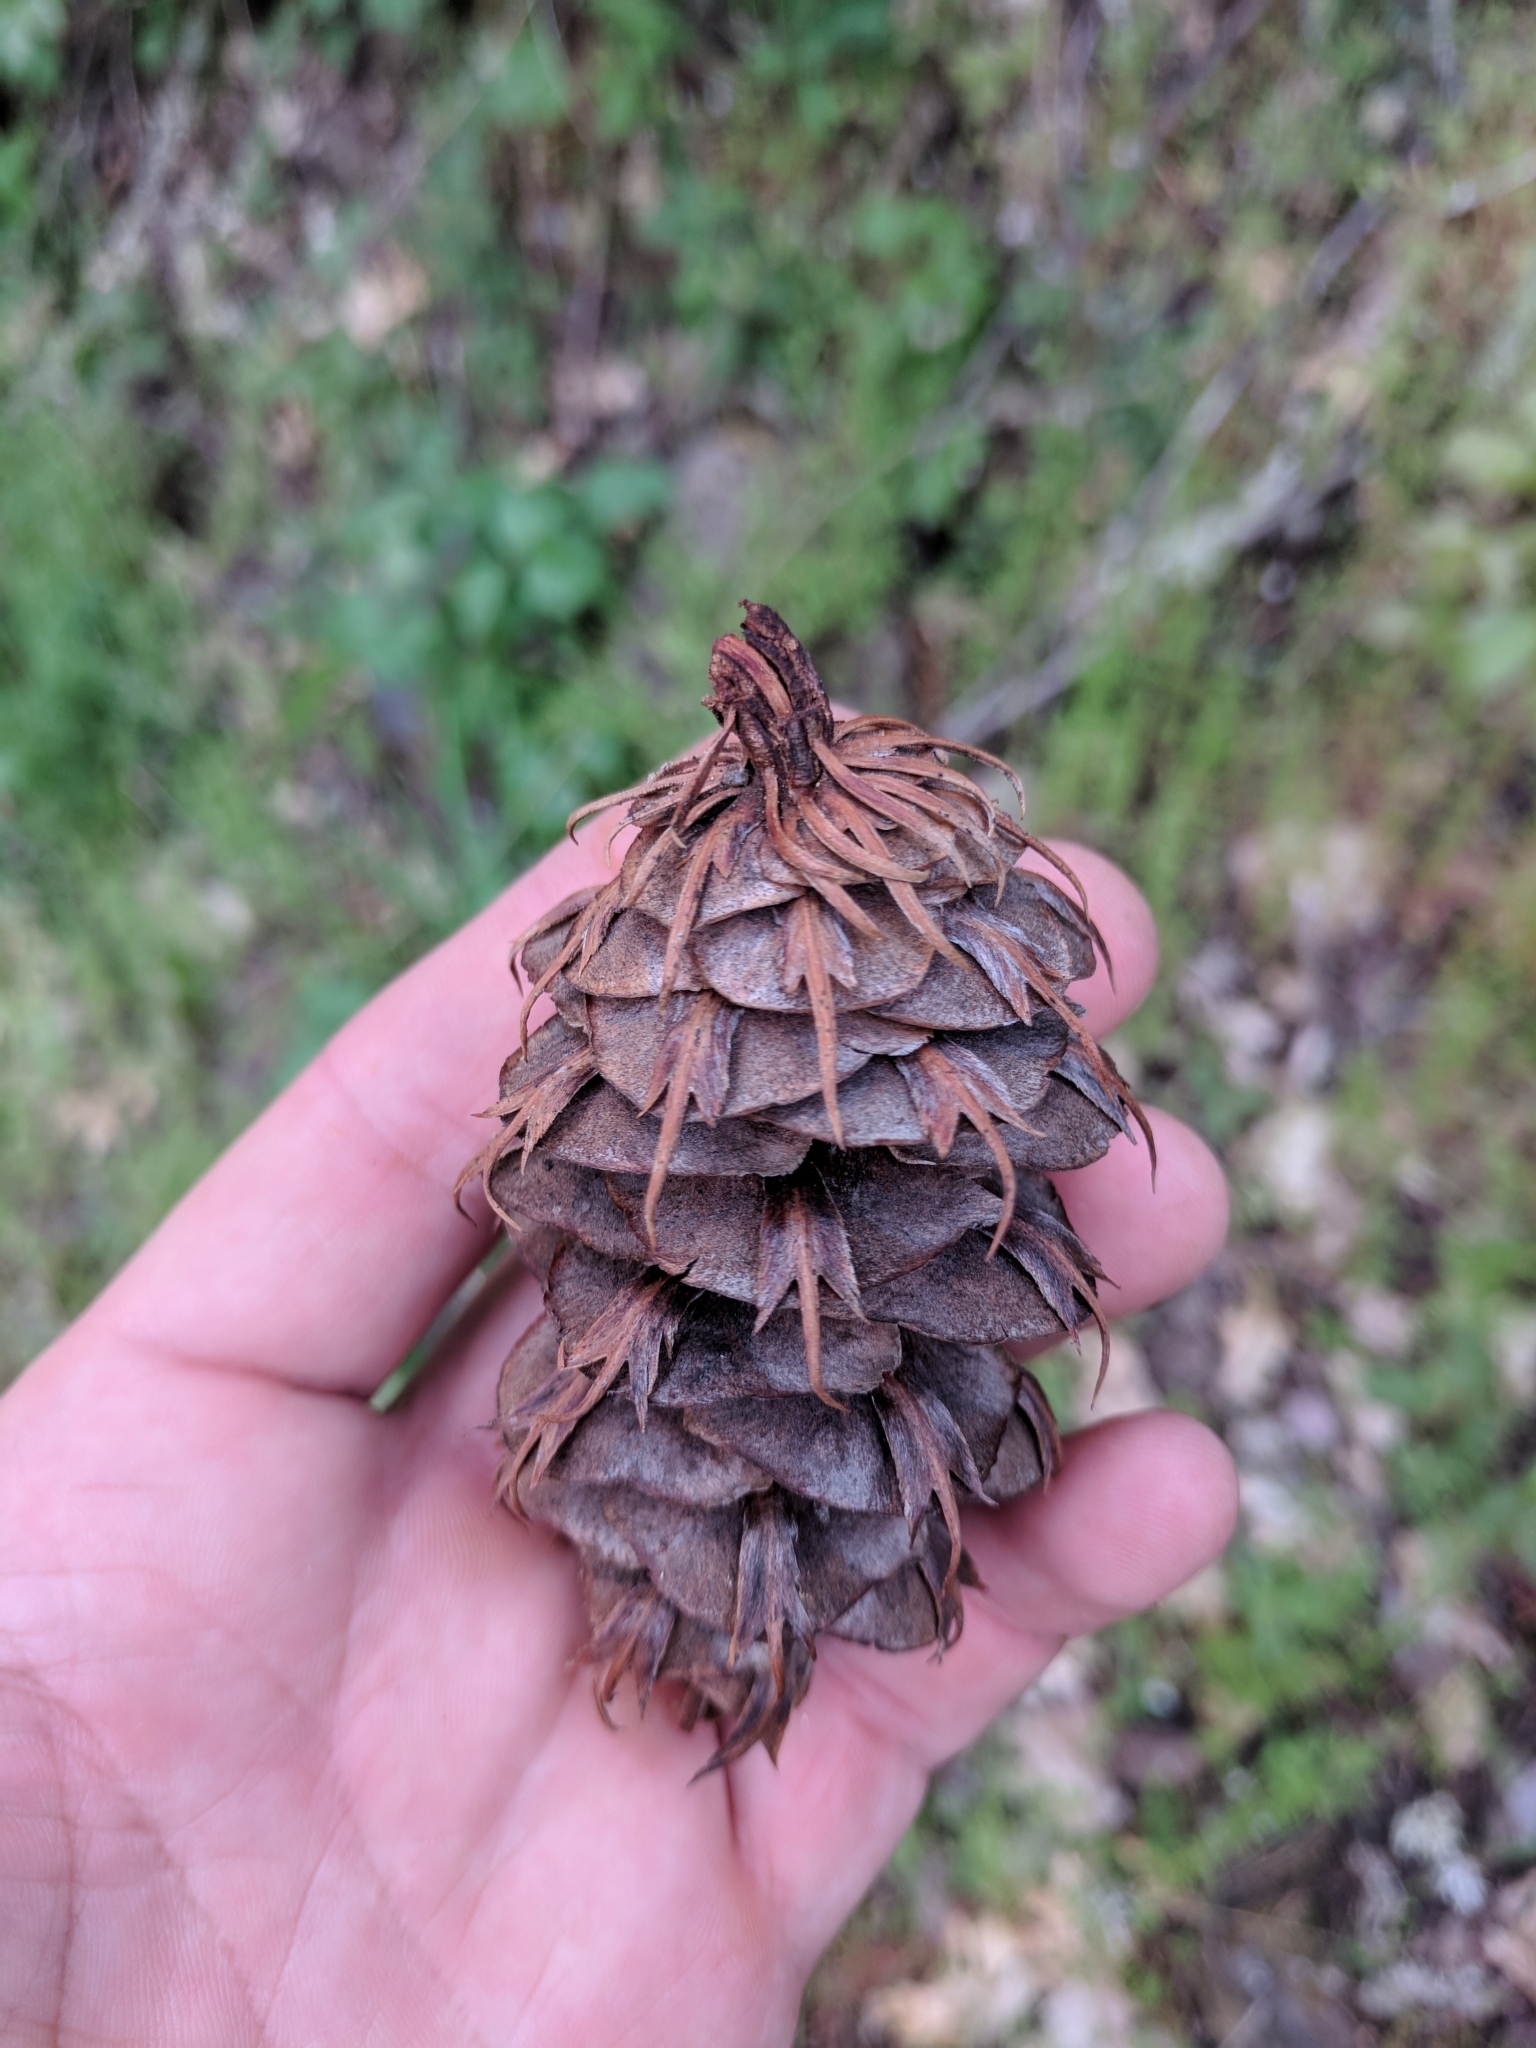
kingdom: Plantae
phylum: Tracheophyta
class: Pinopsida
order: Pinales
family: Pinaceae
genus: Pseudotsuga
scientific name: Pseudotsuga menziesii
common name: Douglas fir
